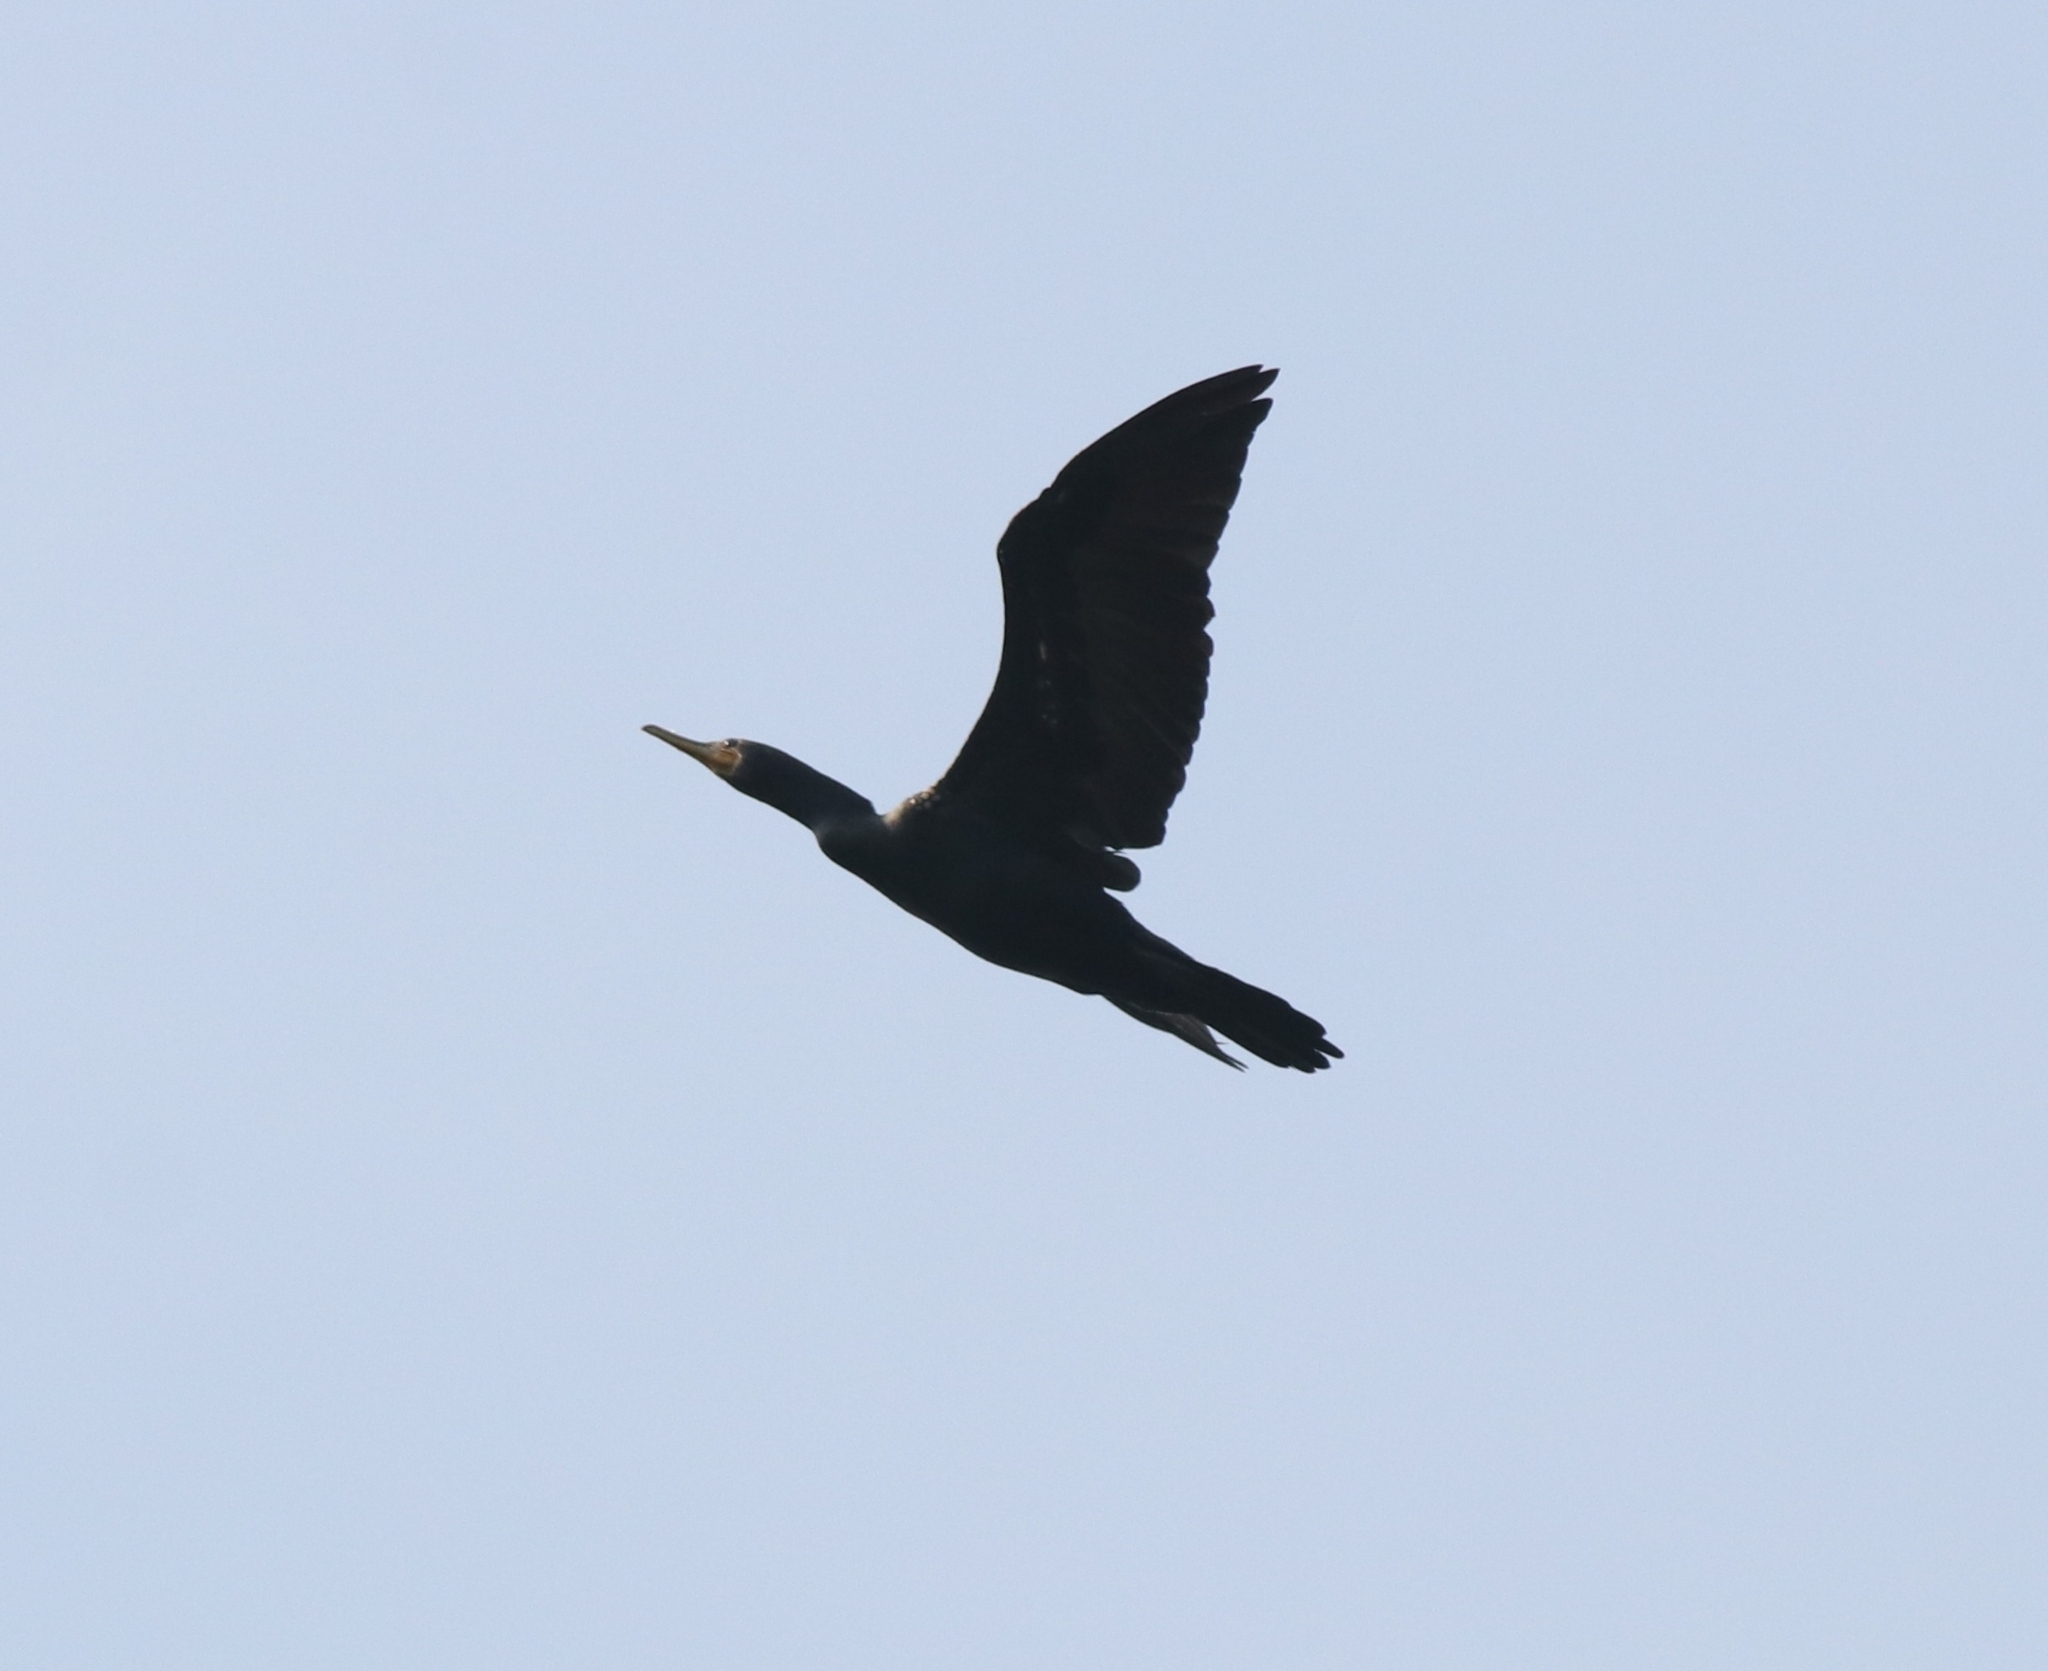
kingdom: Animalia
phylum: Chordata
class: Aves
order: Suliformes
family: Phalacrocoracidae
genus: Phalacrocorax
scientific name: Phalacrocorax fuscicollis
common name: Indian cormorant
